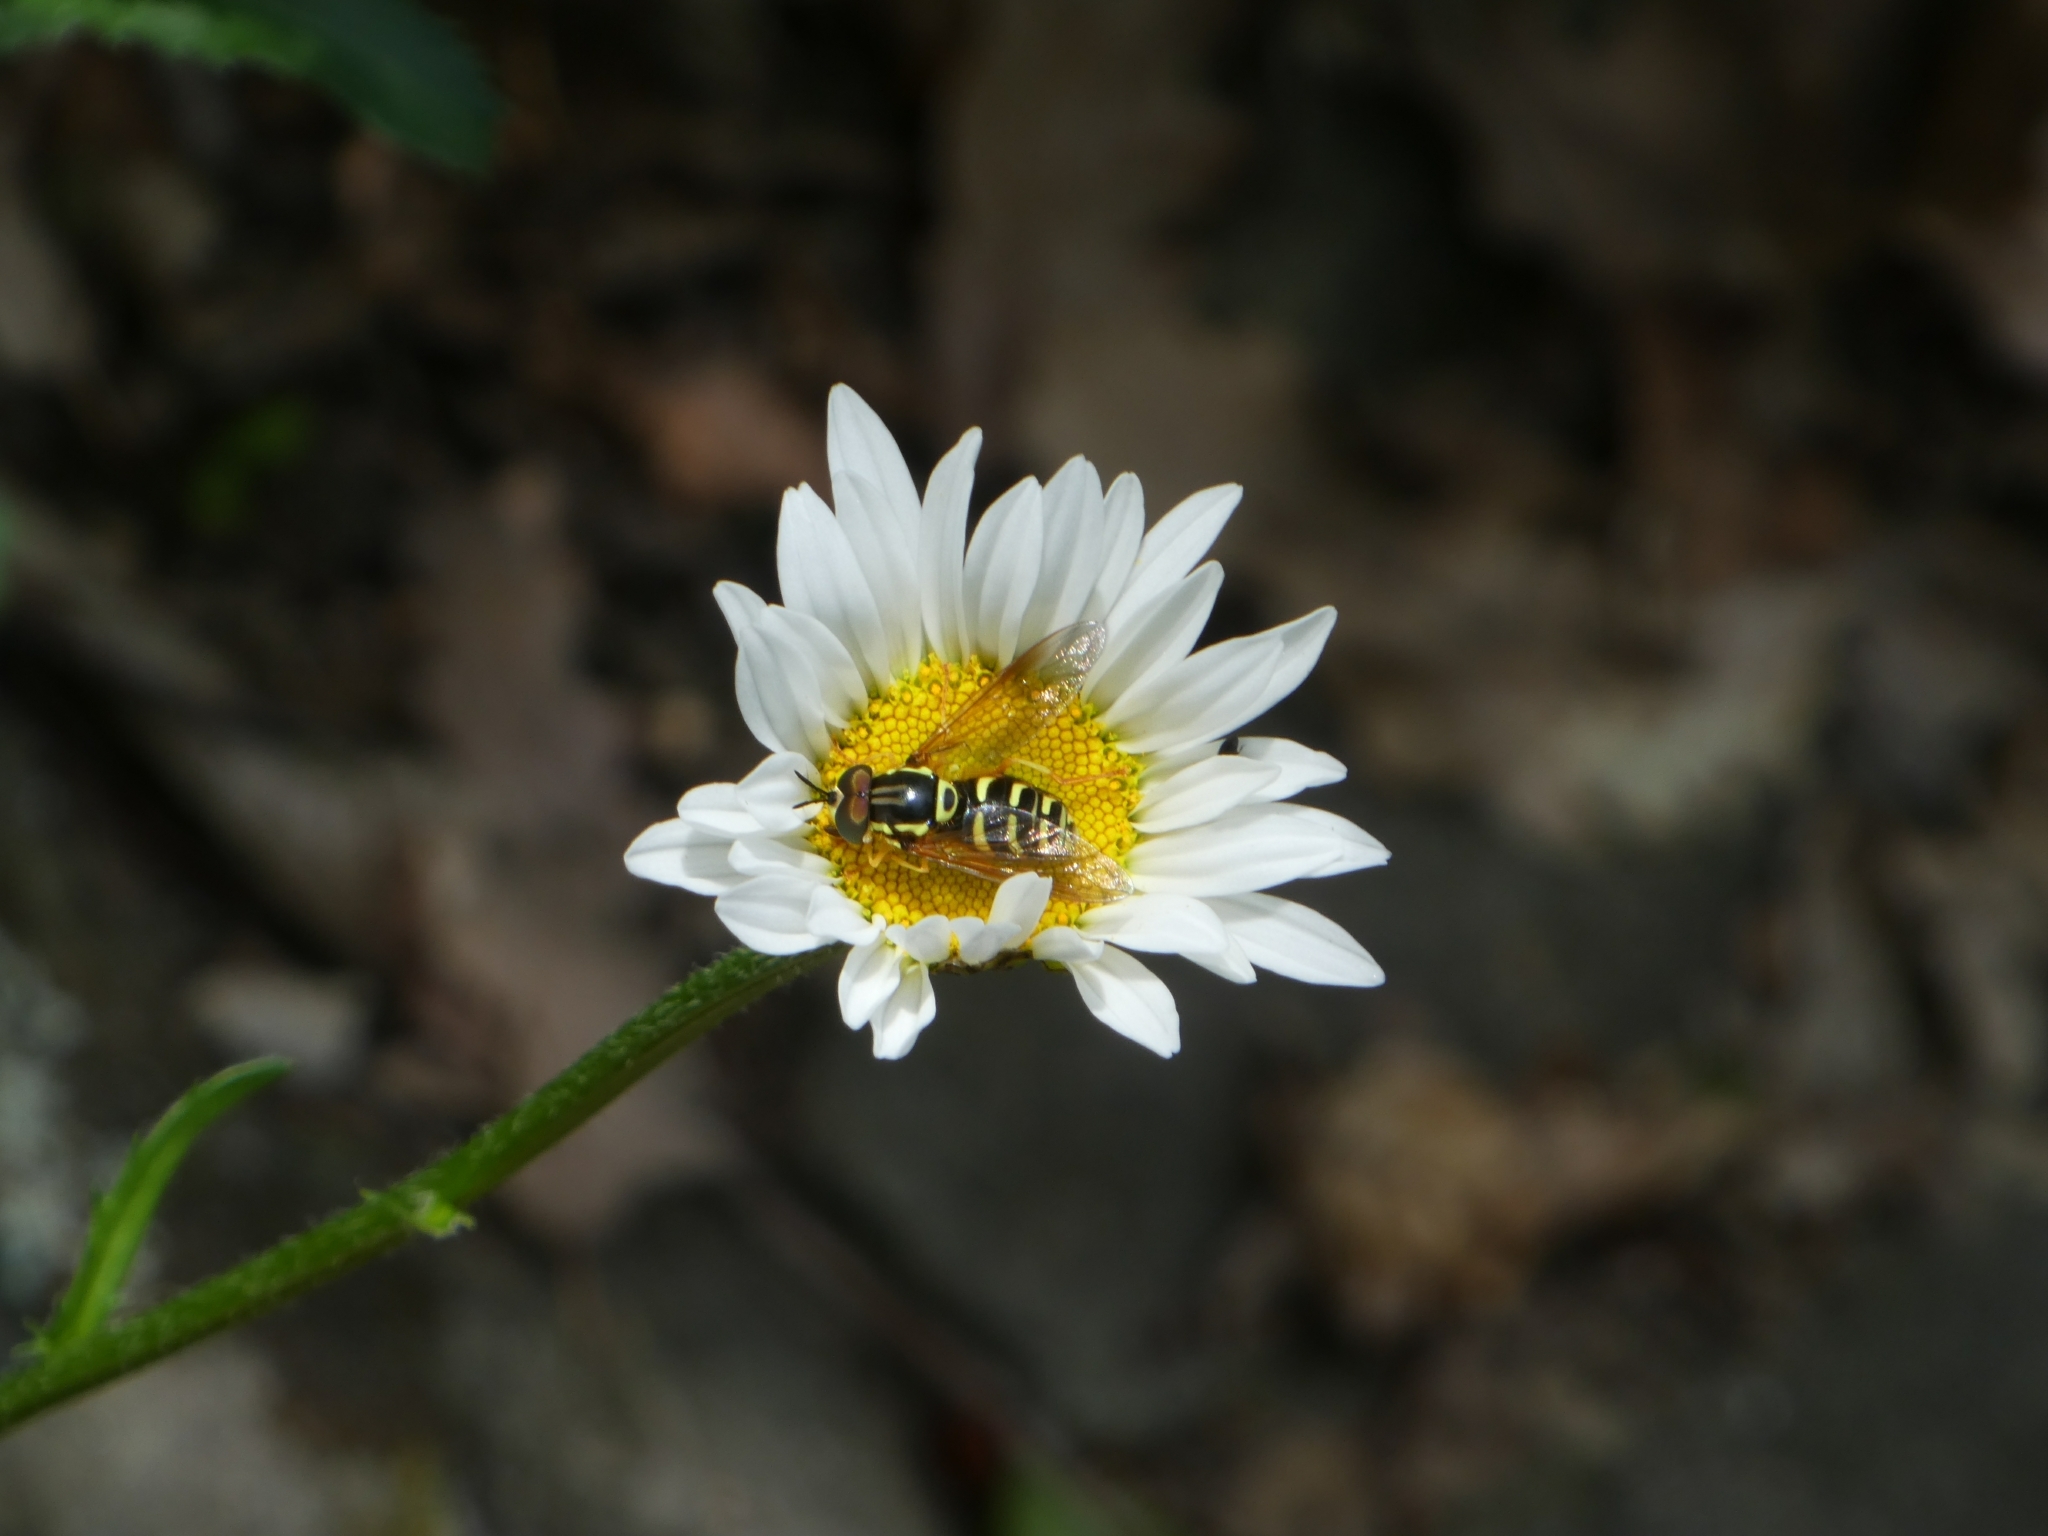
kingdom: Plantae
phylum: Tracheophyta
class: Magnoliopsida
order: Asterales
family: Asteraceae
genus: Leucanthemum
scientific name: Leucanthemum vulgare
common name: Oxeye daisy
